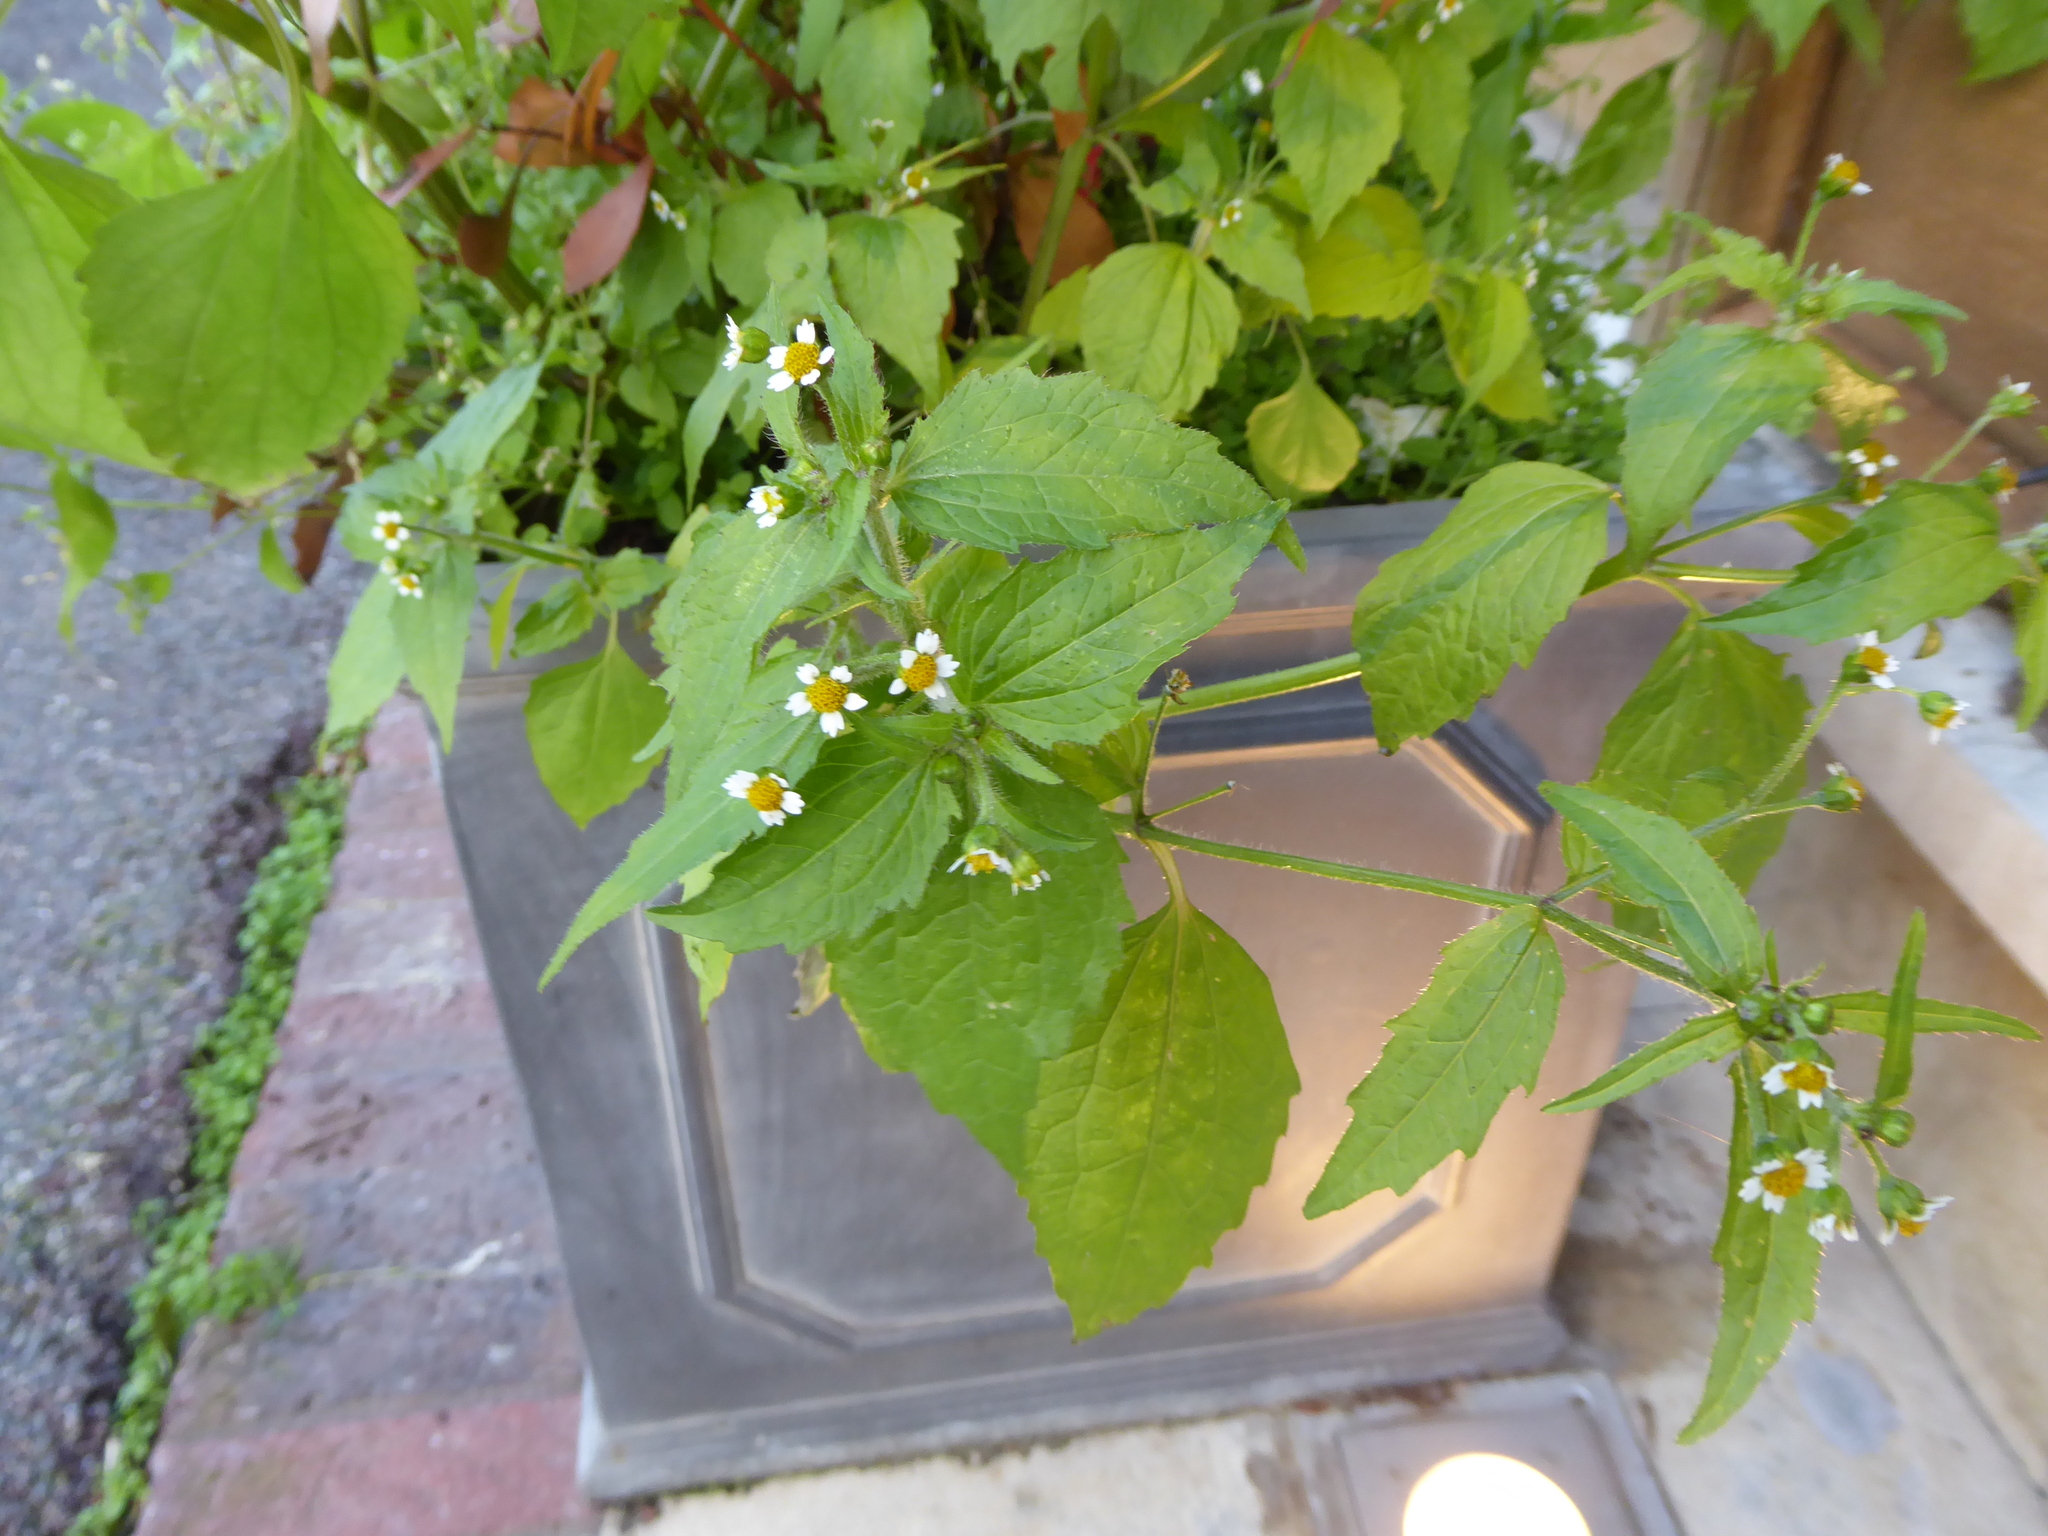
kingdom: Plantae
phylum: Tracheophyta
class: Magnoliopsida
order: Asterales
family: Asteraceae
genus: Galinsoga
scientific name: Galinsoga quadriradiata
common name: Shaggy soldier
